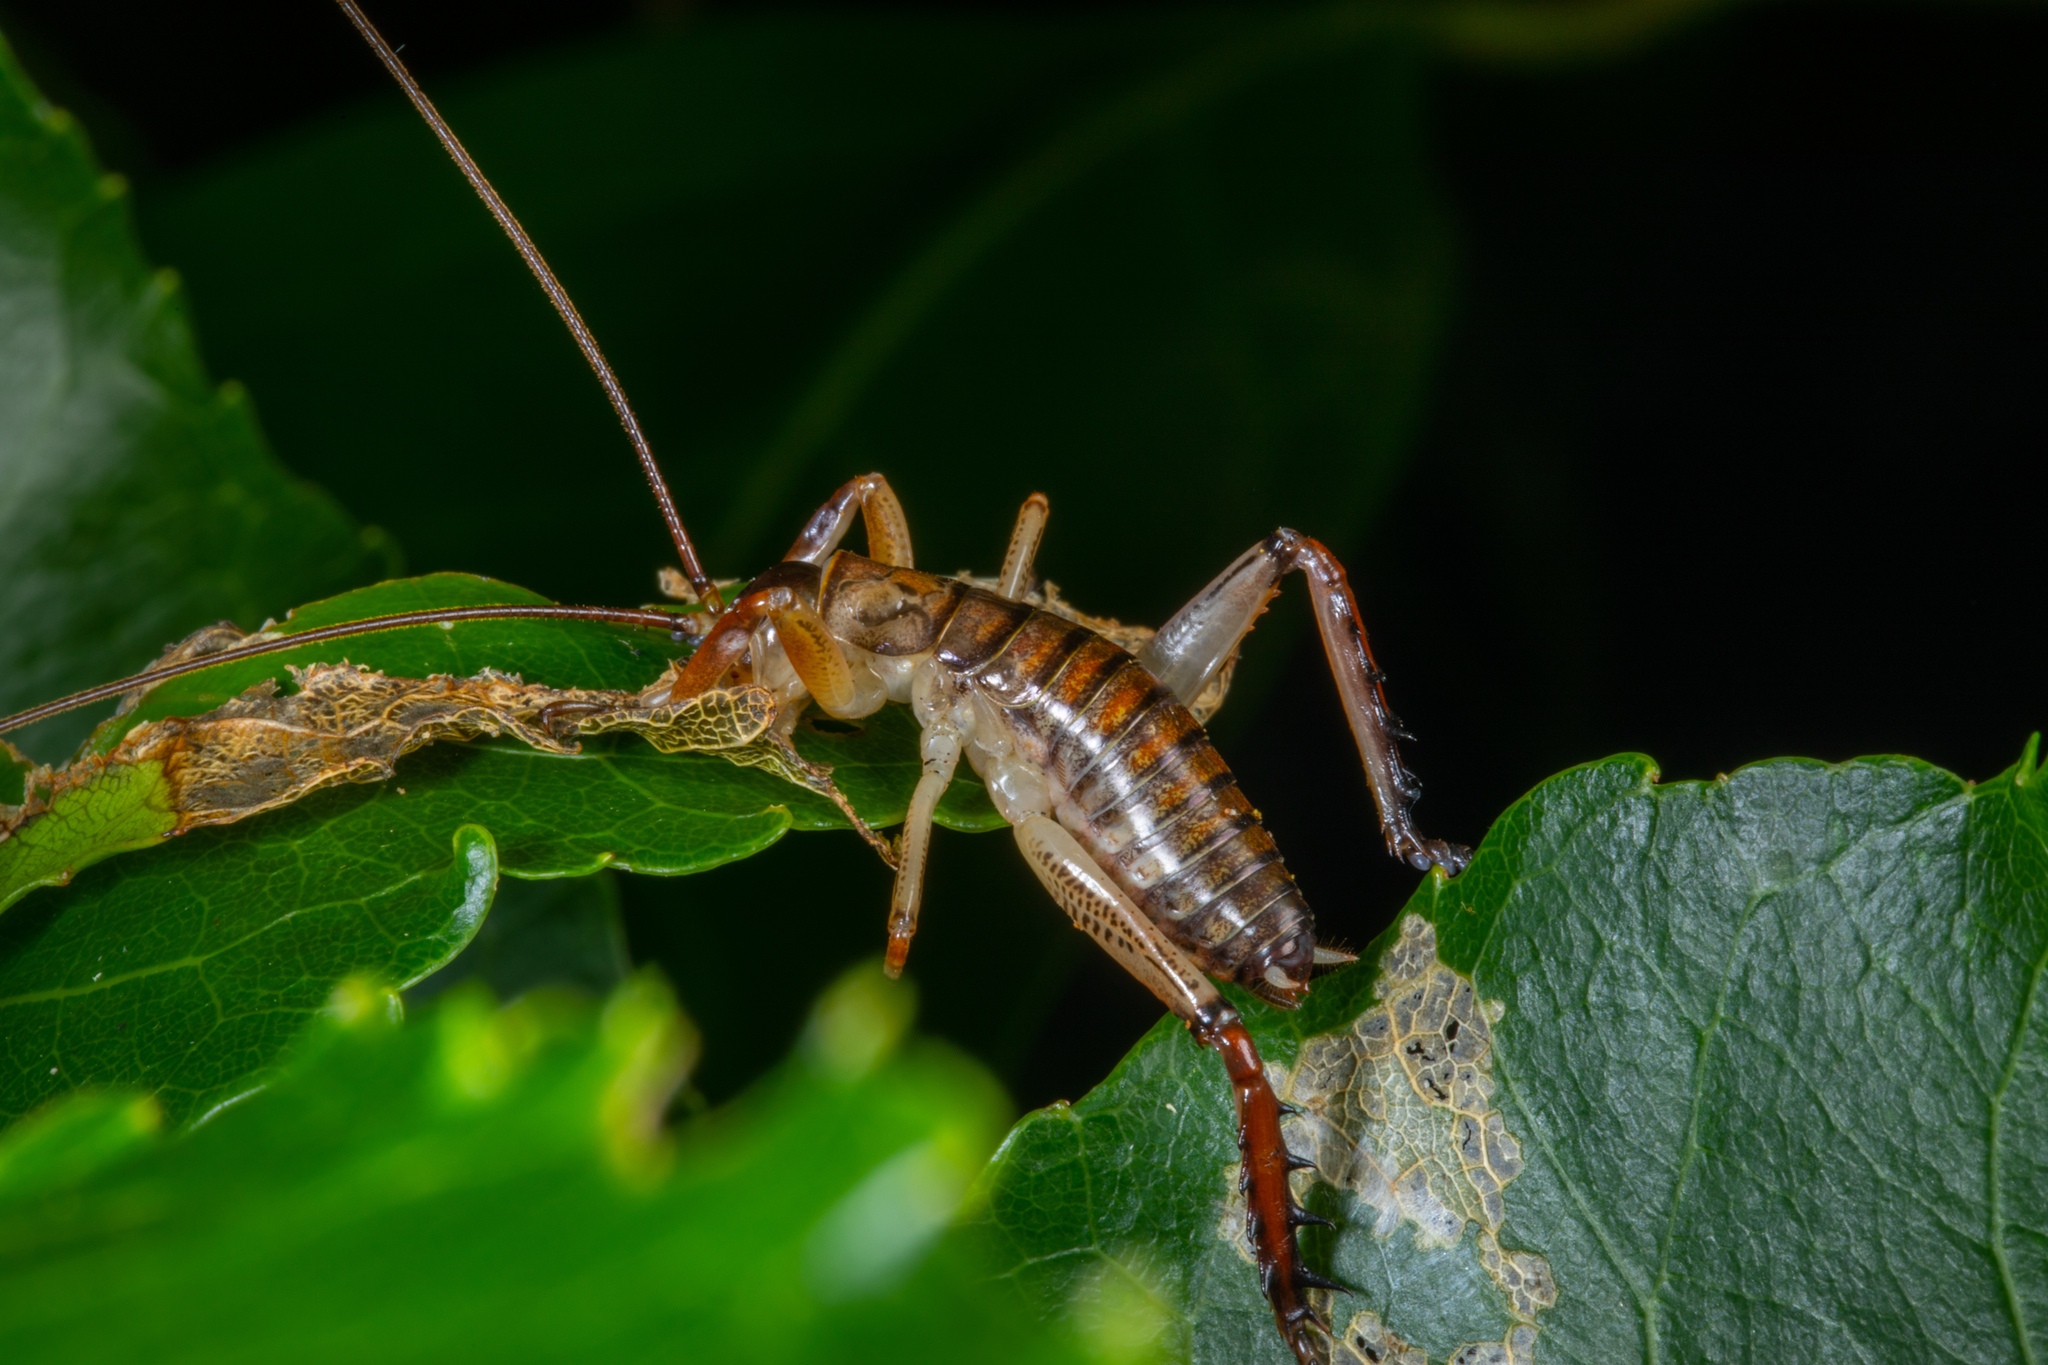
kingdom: Animalia
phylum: Arthropoda
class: Insecta
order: Orthoptera
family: Anostostomatidae
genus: Hemideina
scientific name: Hemideina thoracica
